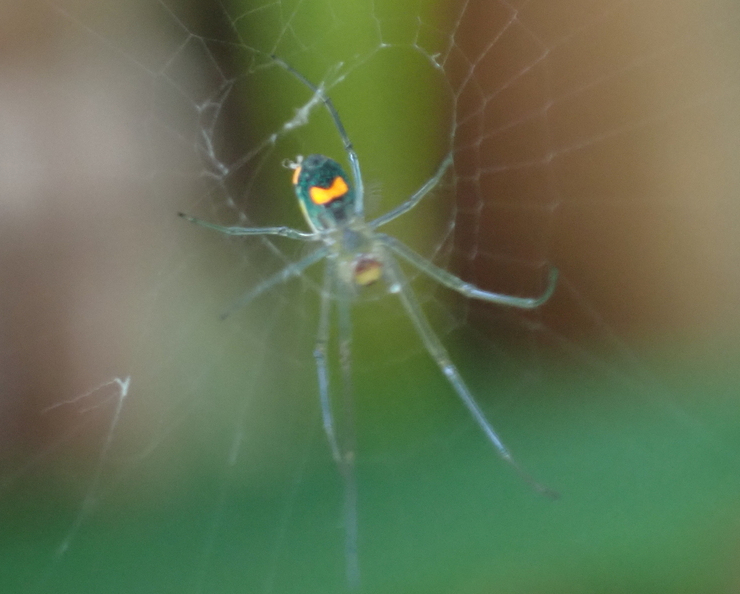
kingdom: Animalia
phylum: Arthropoda
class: Arachnida
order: Araneae
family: Tetragnathidae
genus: Leucauge
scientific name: Leucauge argyrobapta
